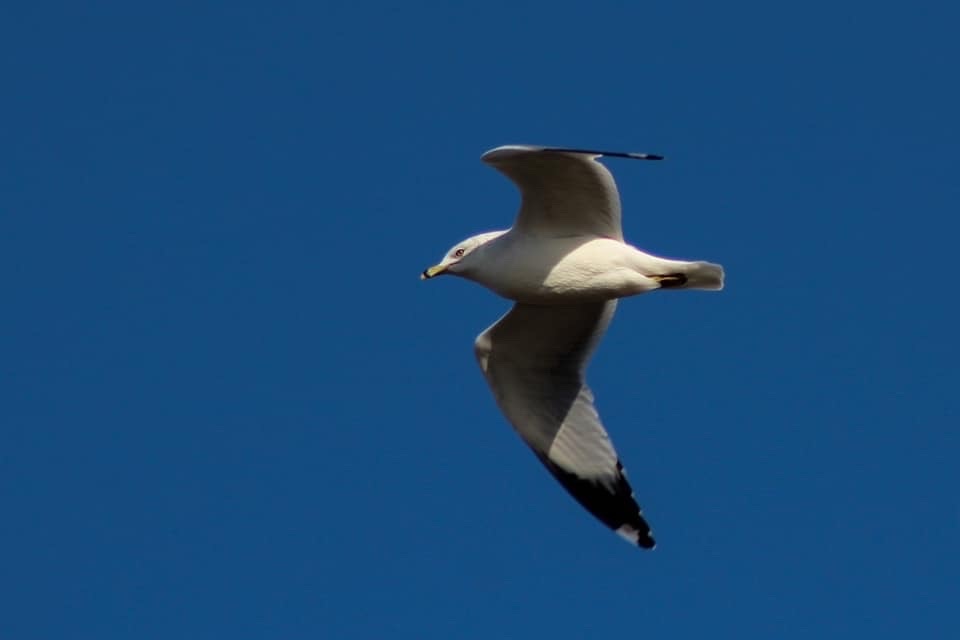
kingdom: Animalia
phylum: Chordata
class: Aves
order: Charadriiformes
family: Laridae
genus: Larus
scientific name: Larus delawarensis
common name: Ring-billed gull
